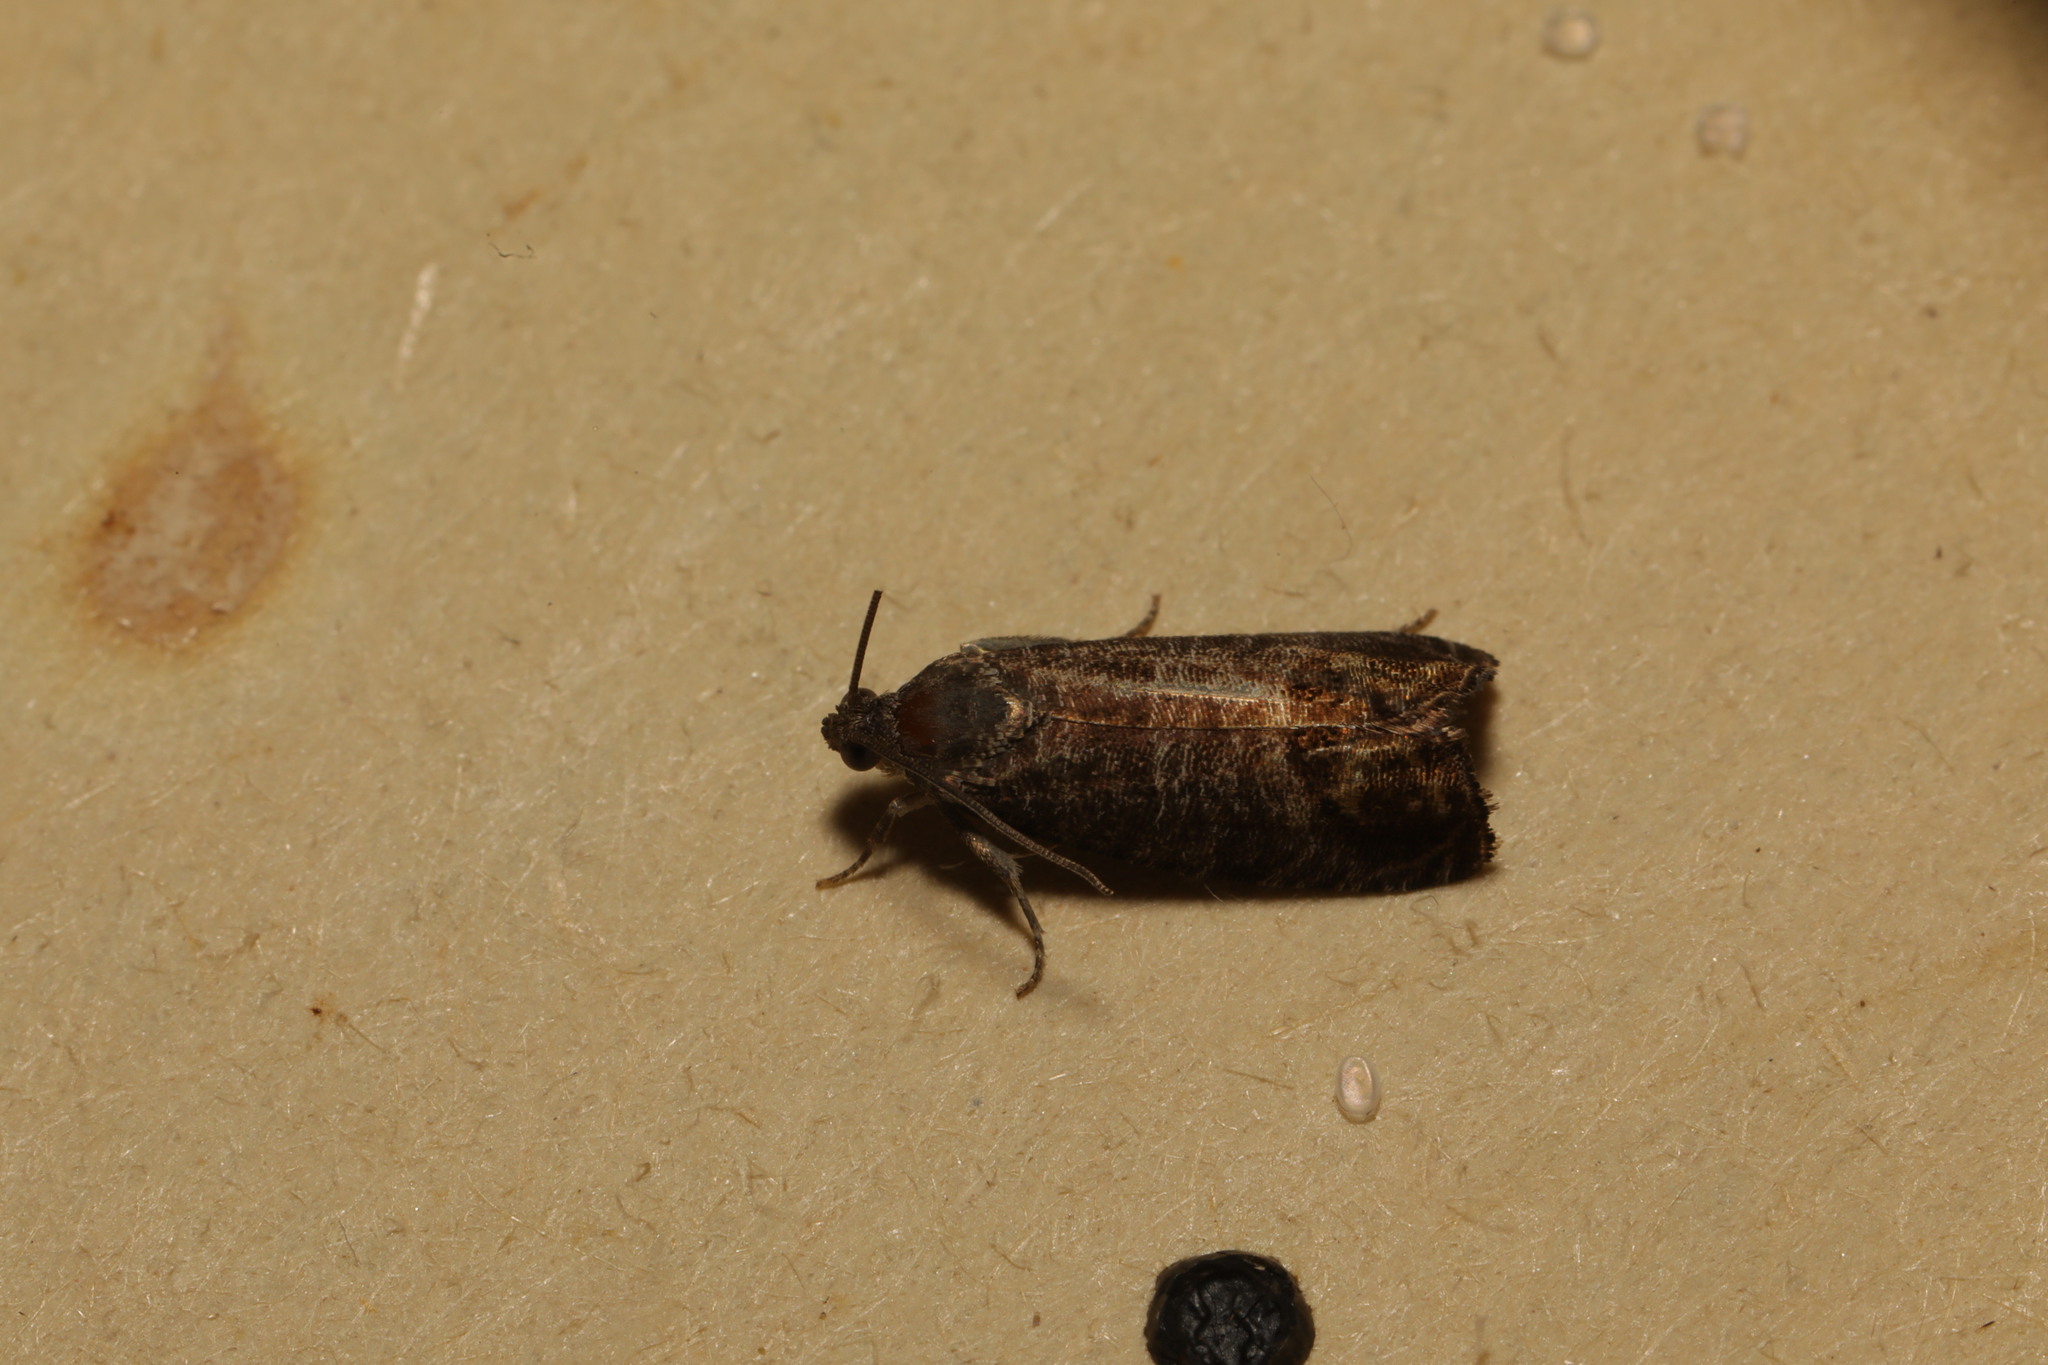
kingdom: Animalia
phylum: Arthropoda
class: Insecta
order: Lepidoptera
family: Tortricidae
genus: Cydia
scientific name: Cydia pomonella
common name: Codling moth
